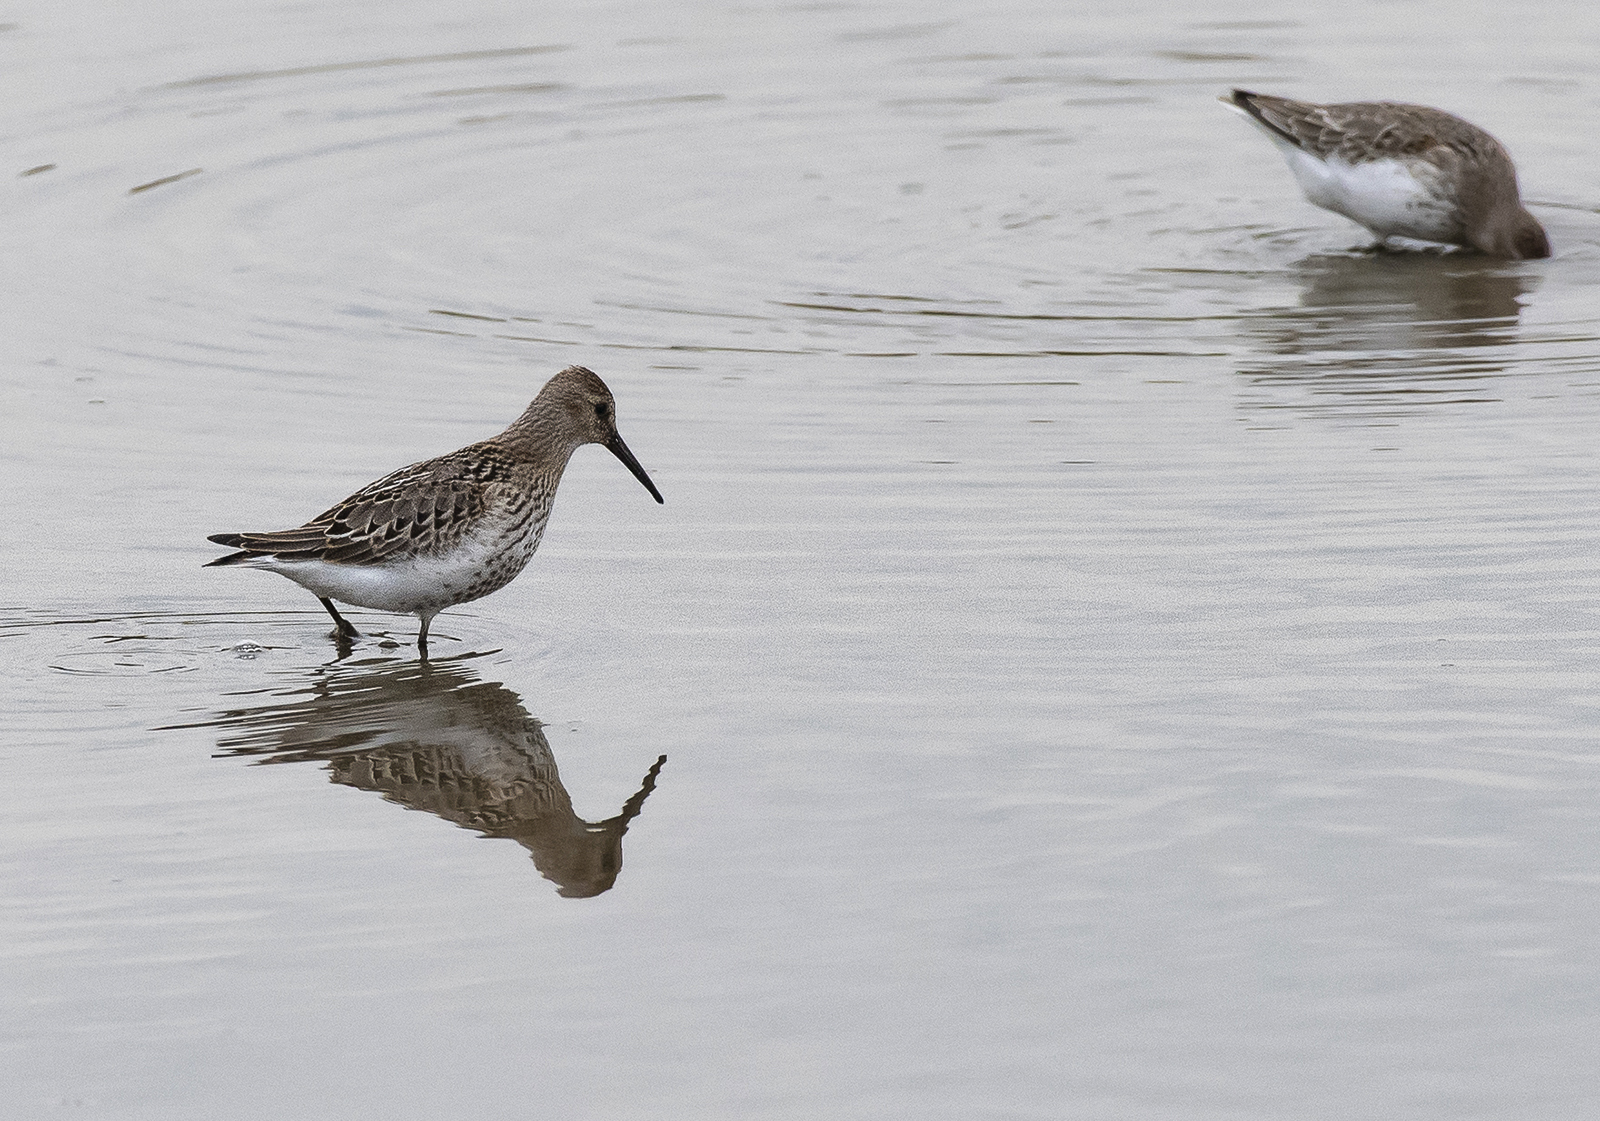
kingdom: Animalia
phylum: Chordata
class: Aves
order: Charadriiformes
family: Scolopacidae
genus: Calidris
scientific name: Calidris alpina
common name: Dunlin
